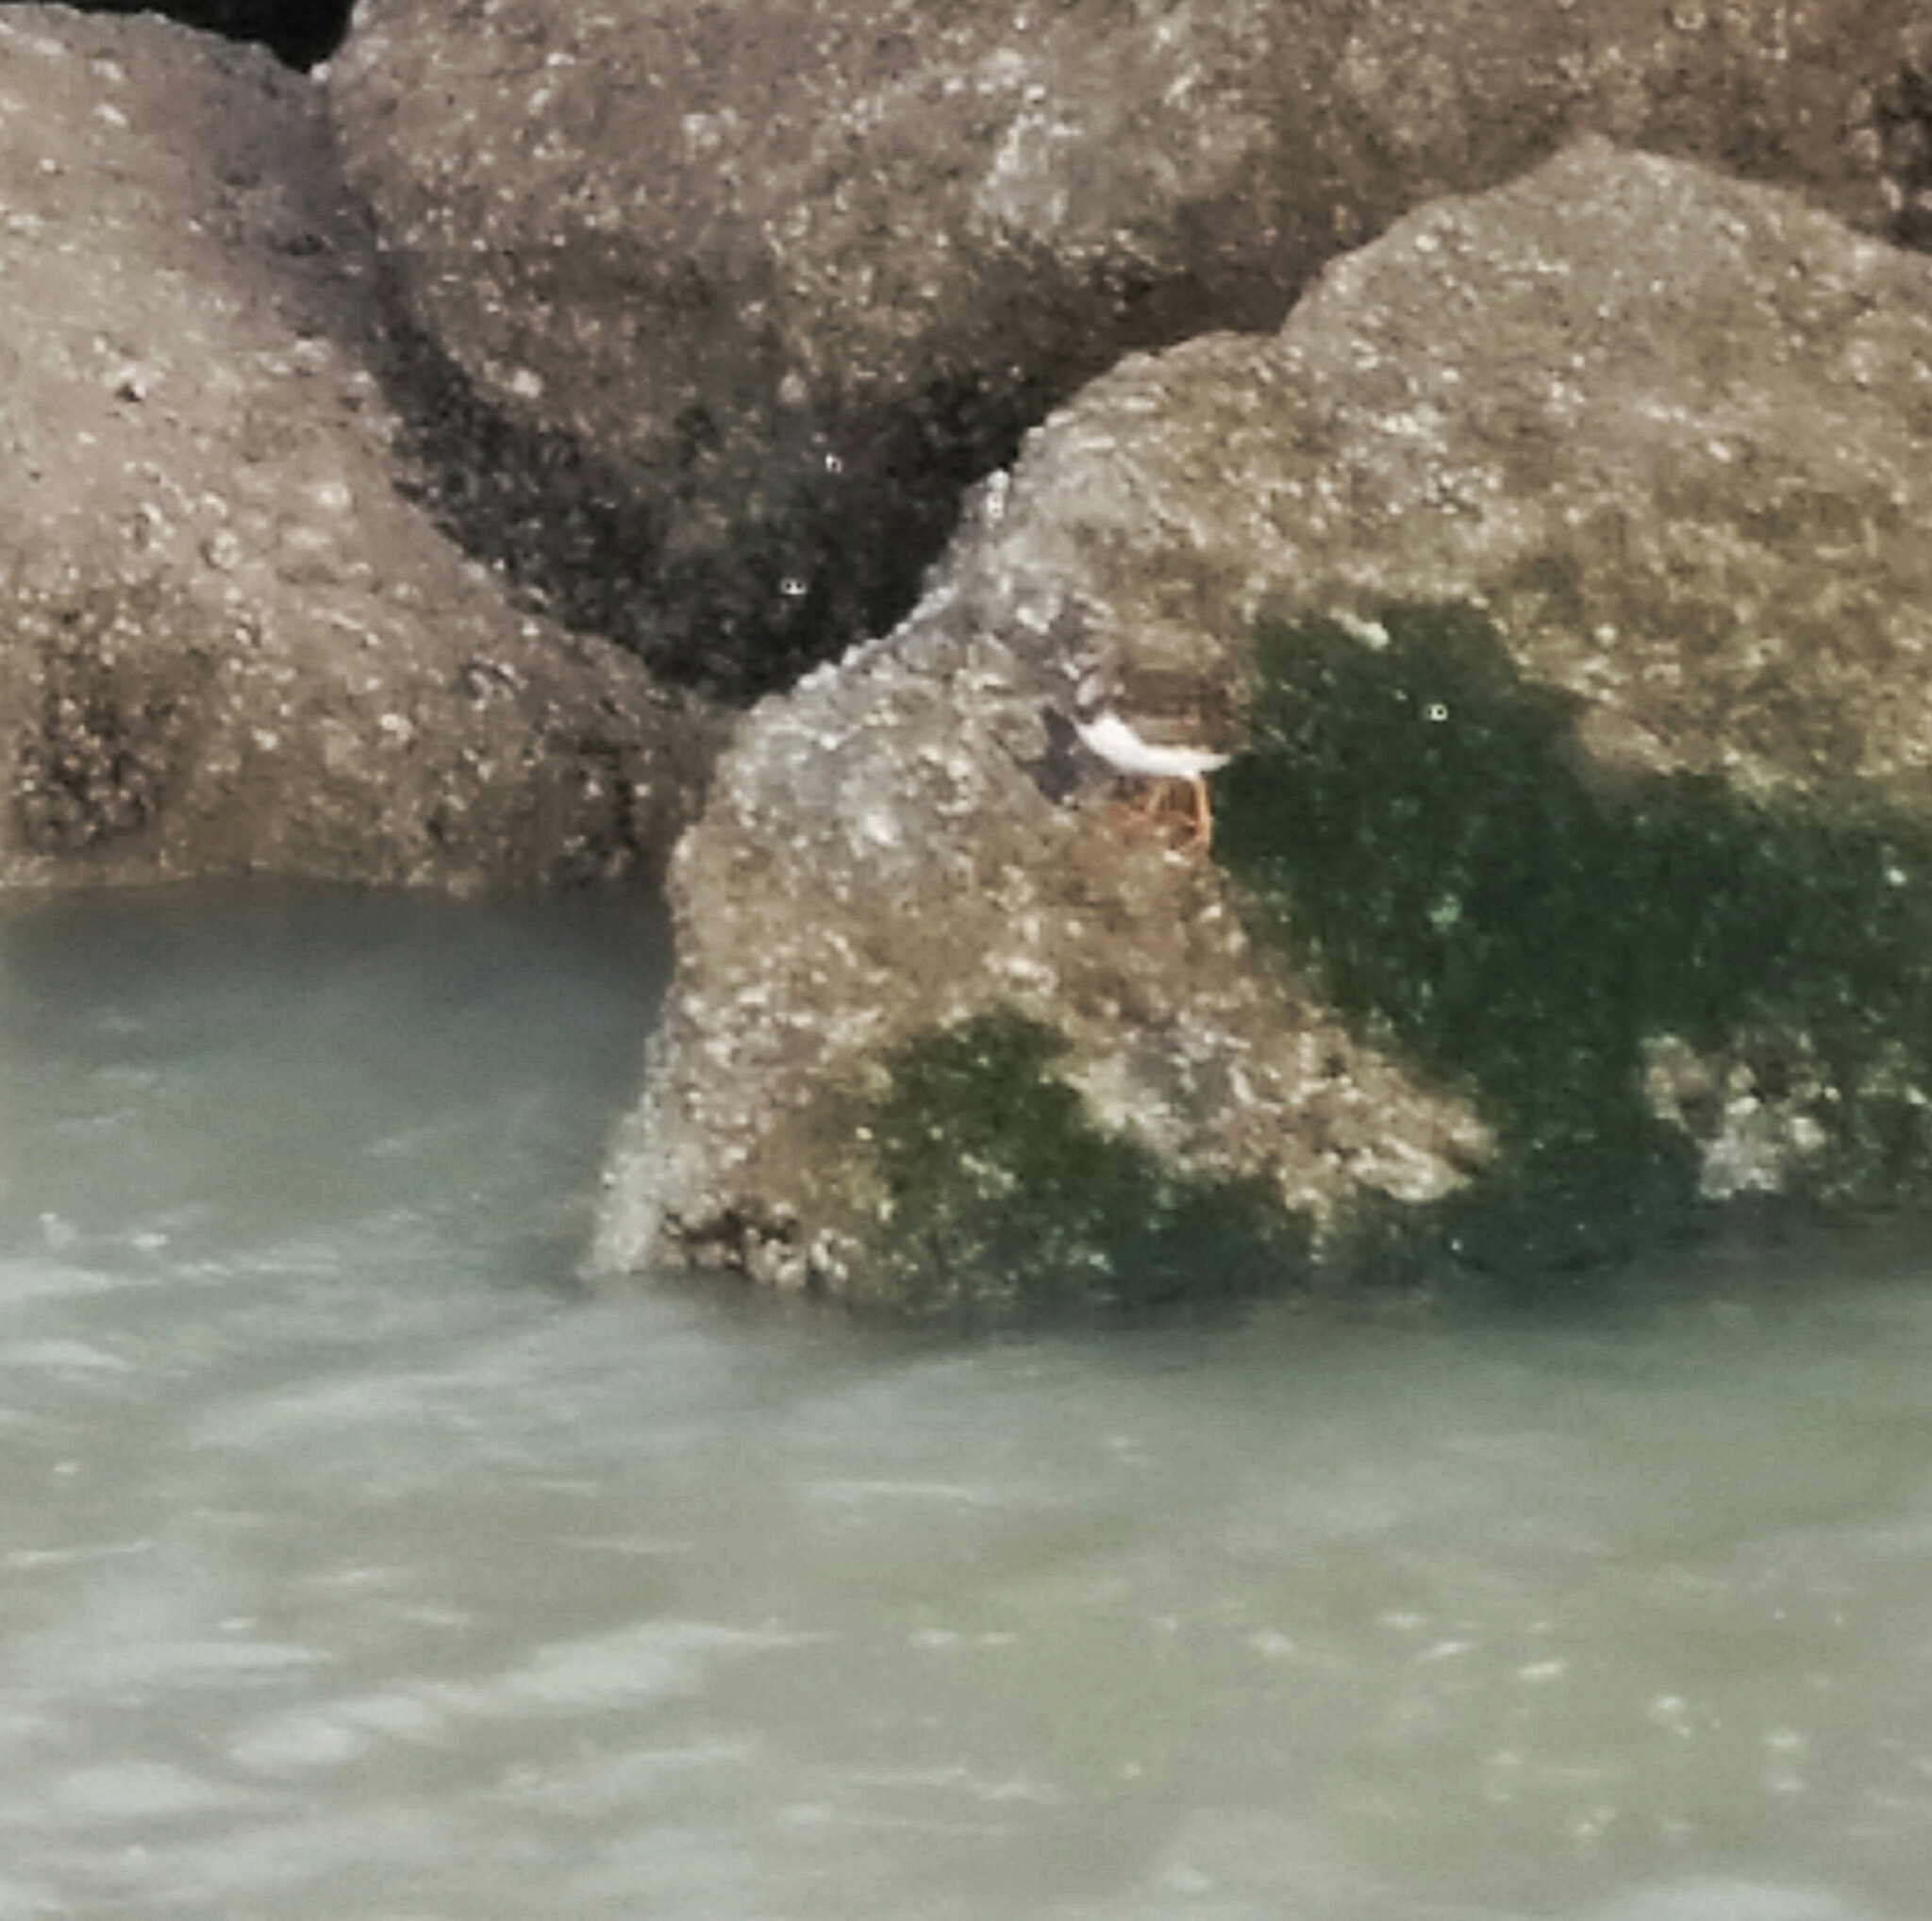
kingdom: Animalia
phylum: Chordata
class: Aves
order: Charadriiformes
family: Scolopacidae
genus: Arenaria
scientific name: Arenaria interpres
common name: Ruddy turnstone
